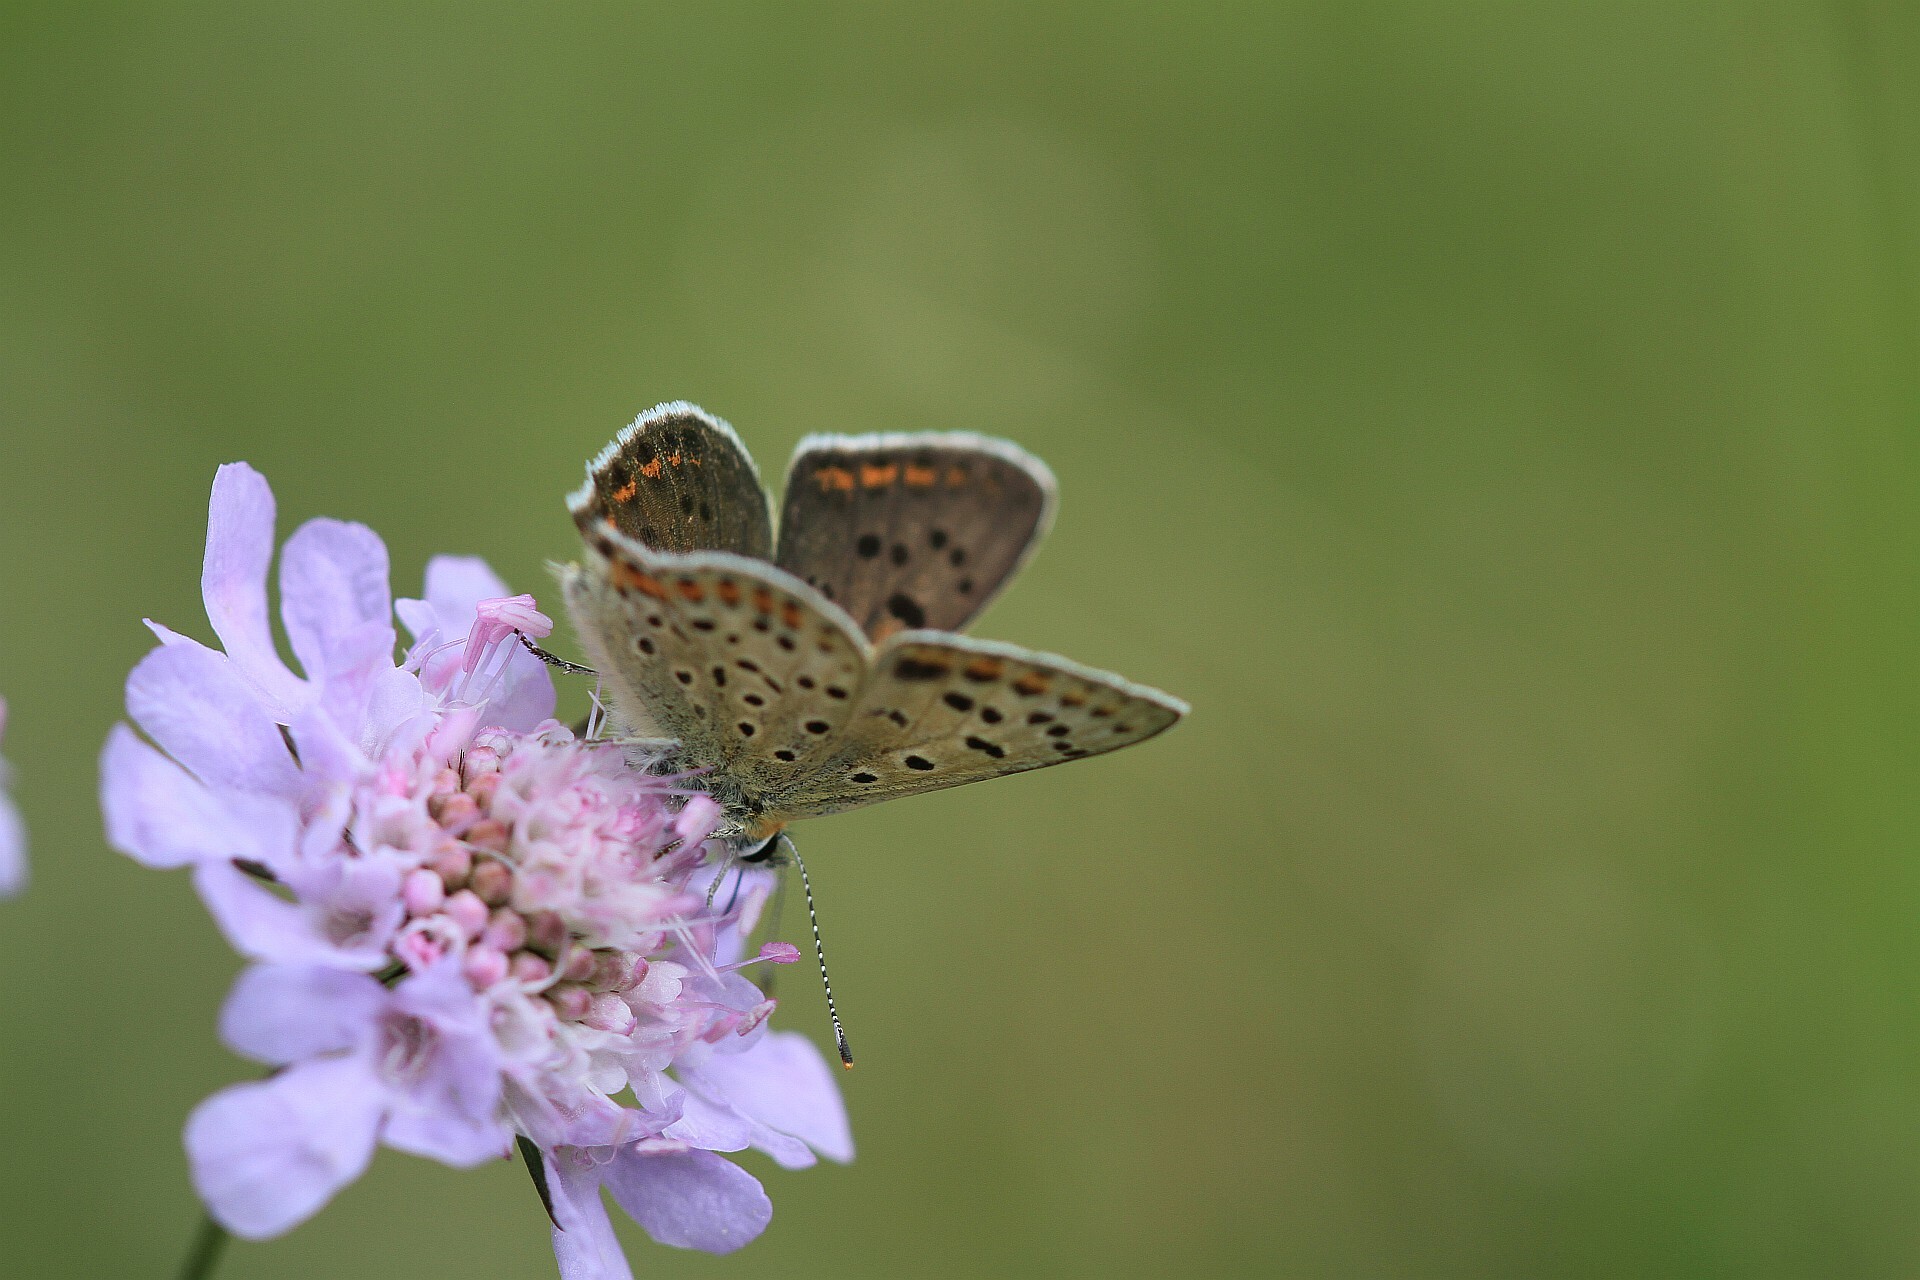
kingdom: Animalia
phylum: Arthropoda
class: Insecta
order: Lepidoptera
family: Lycaenidae
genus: Loweia
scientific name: Loweia tityrus
